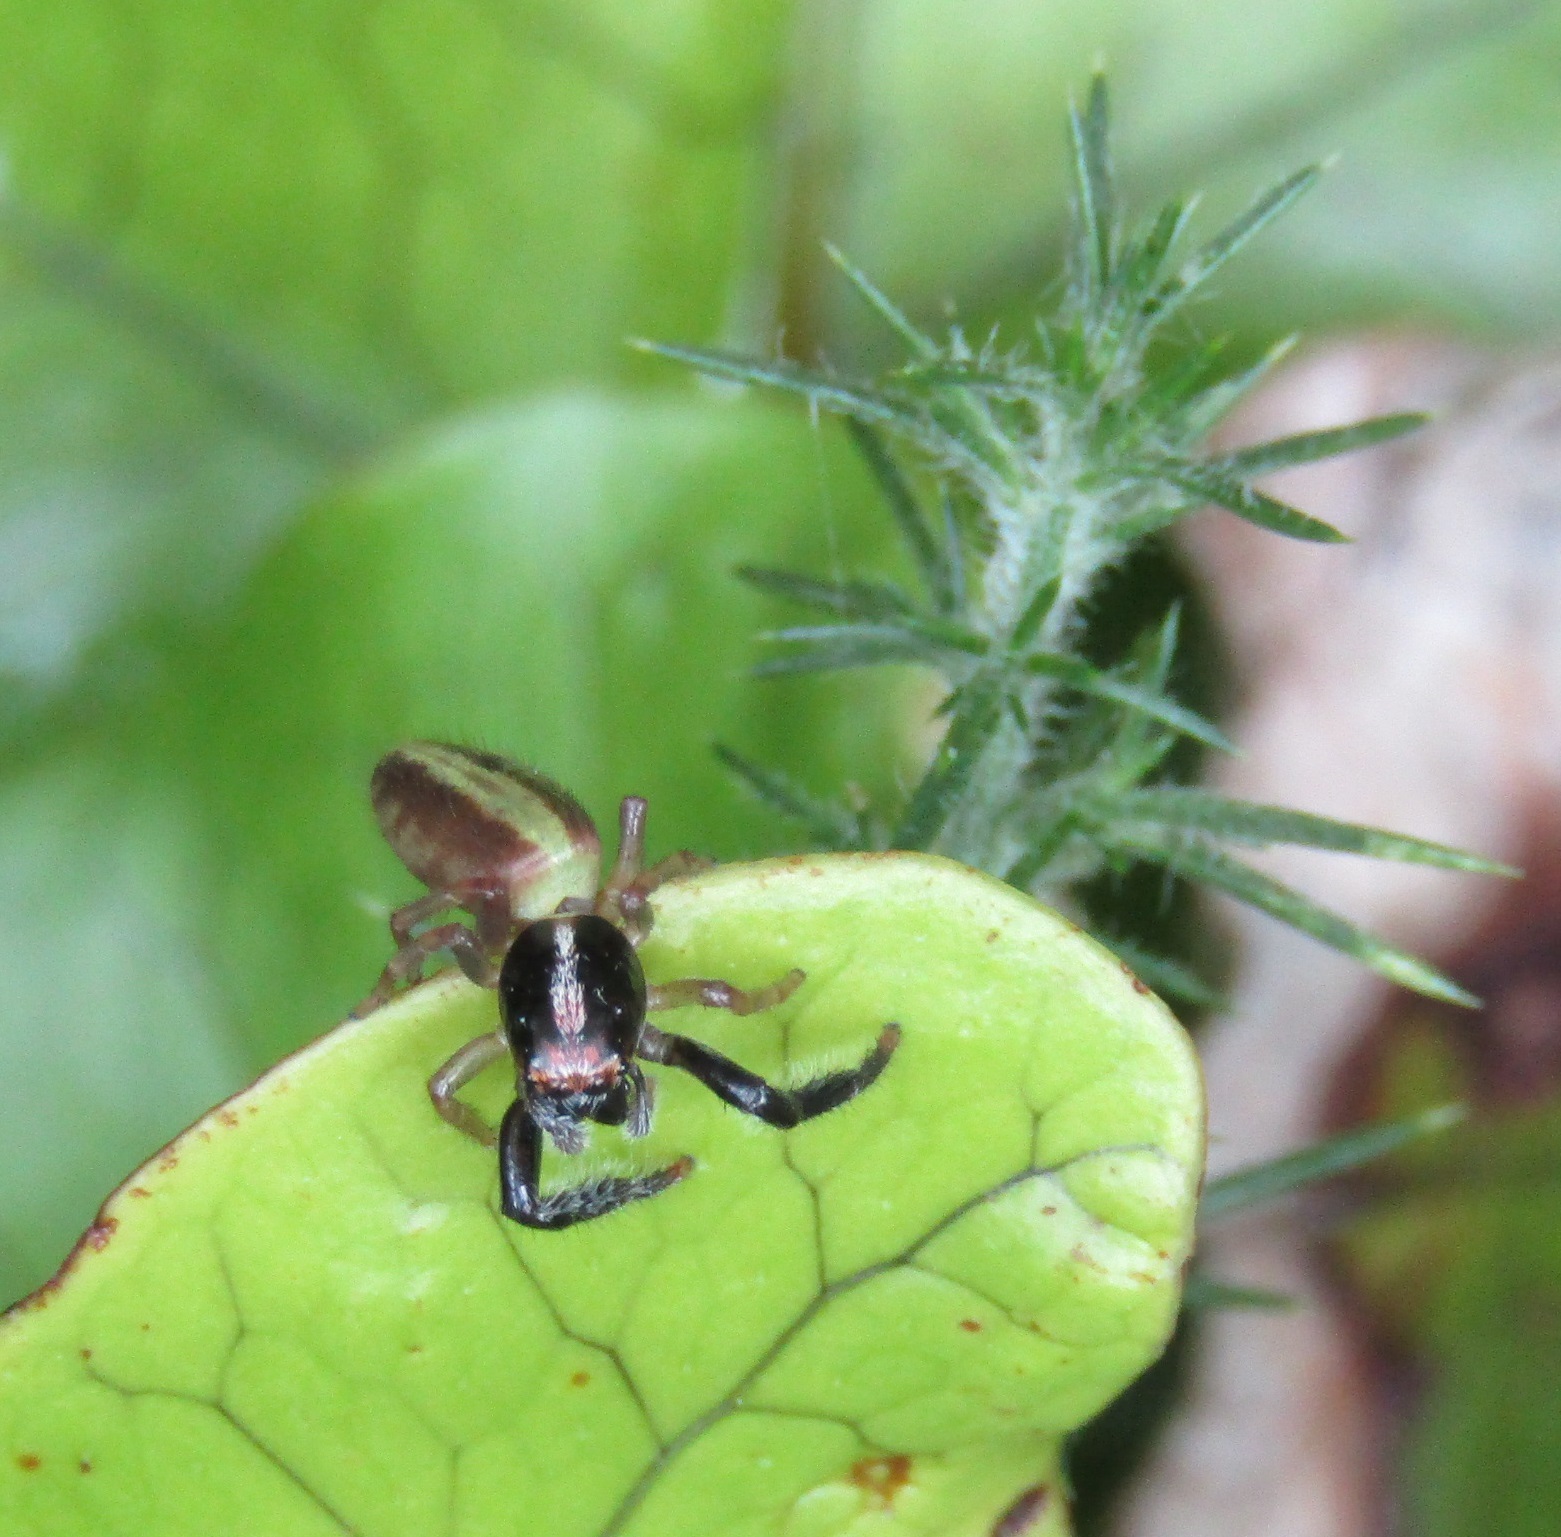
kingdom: Animalia
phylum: Arthropoda
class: Arachnida
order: Araneae
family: Salticidae
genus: Trite
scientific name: Trite planiceps
